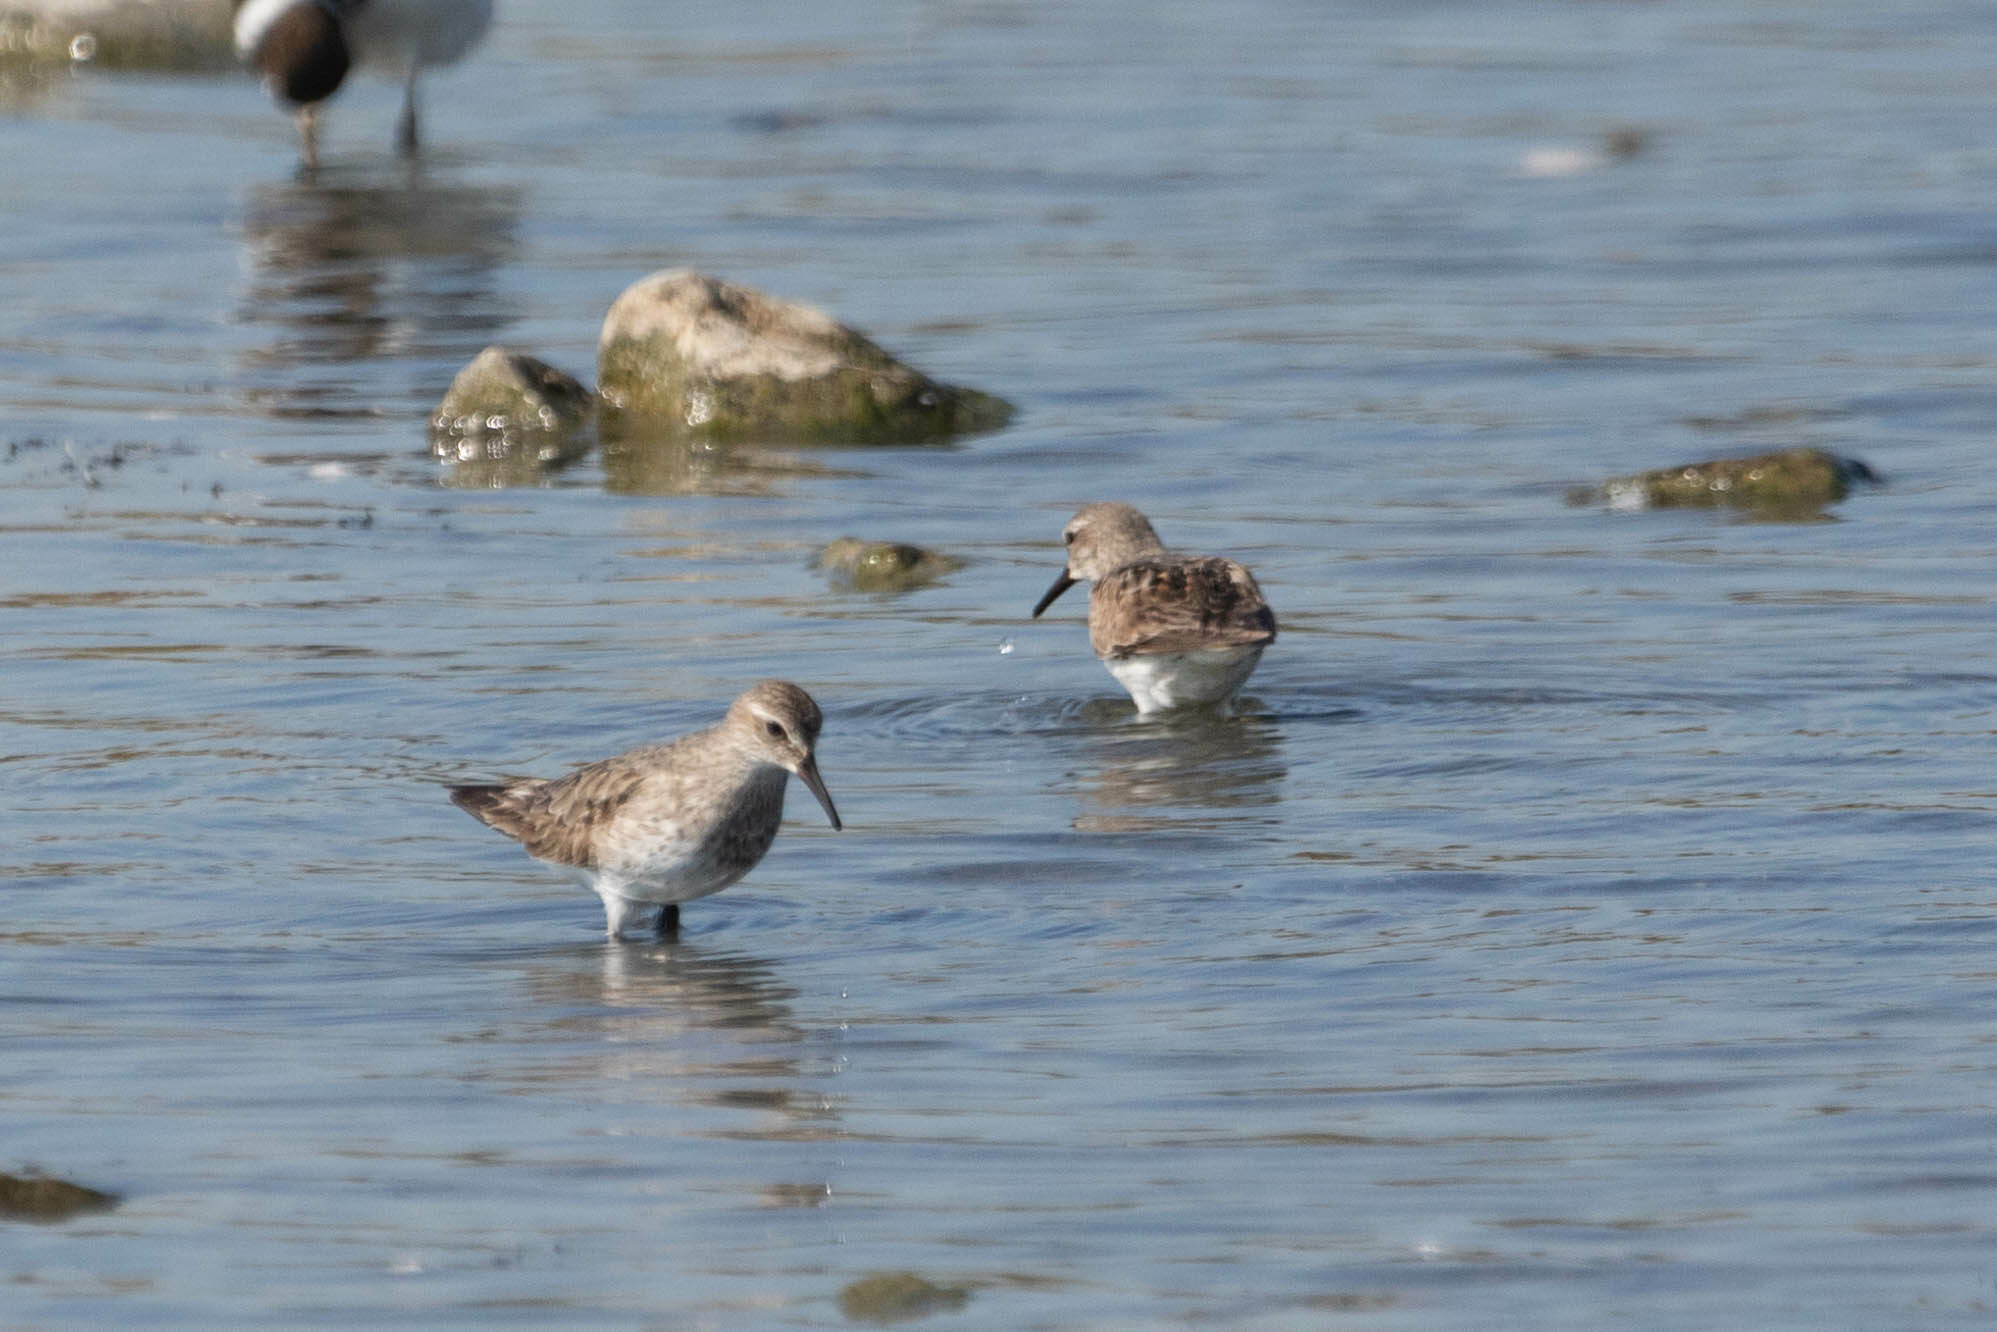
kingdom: Animalia
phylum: Chordata
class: Aves
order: Charadriiformes
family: Scolopacidae
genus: Calidris
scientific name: Calidris fuscicollis
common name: White-rumped sandpiper
